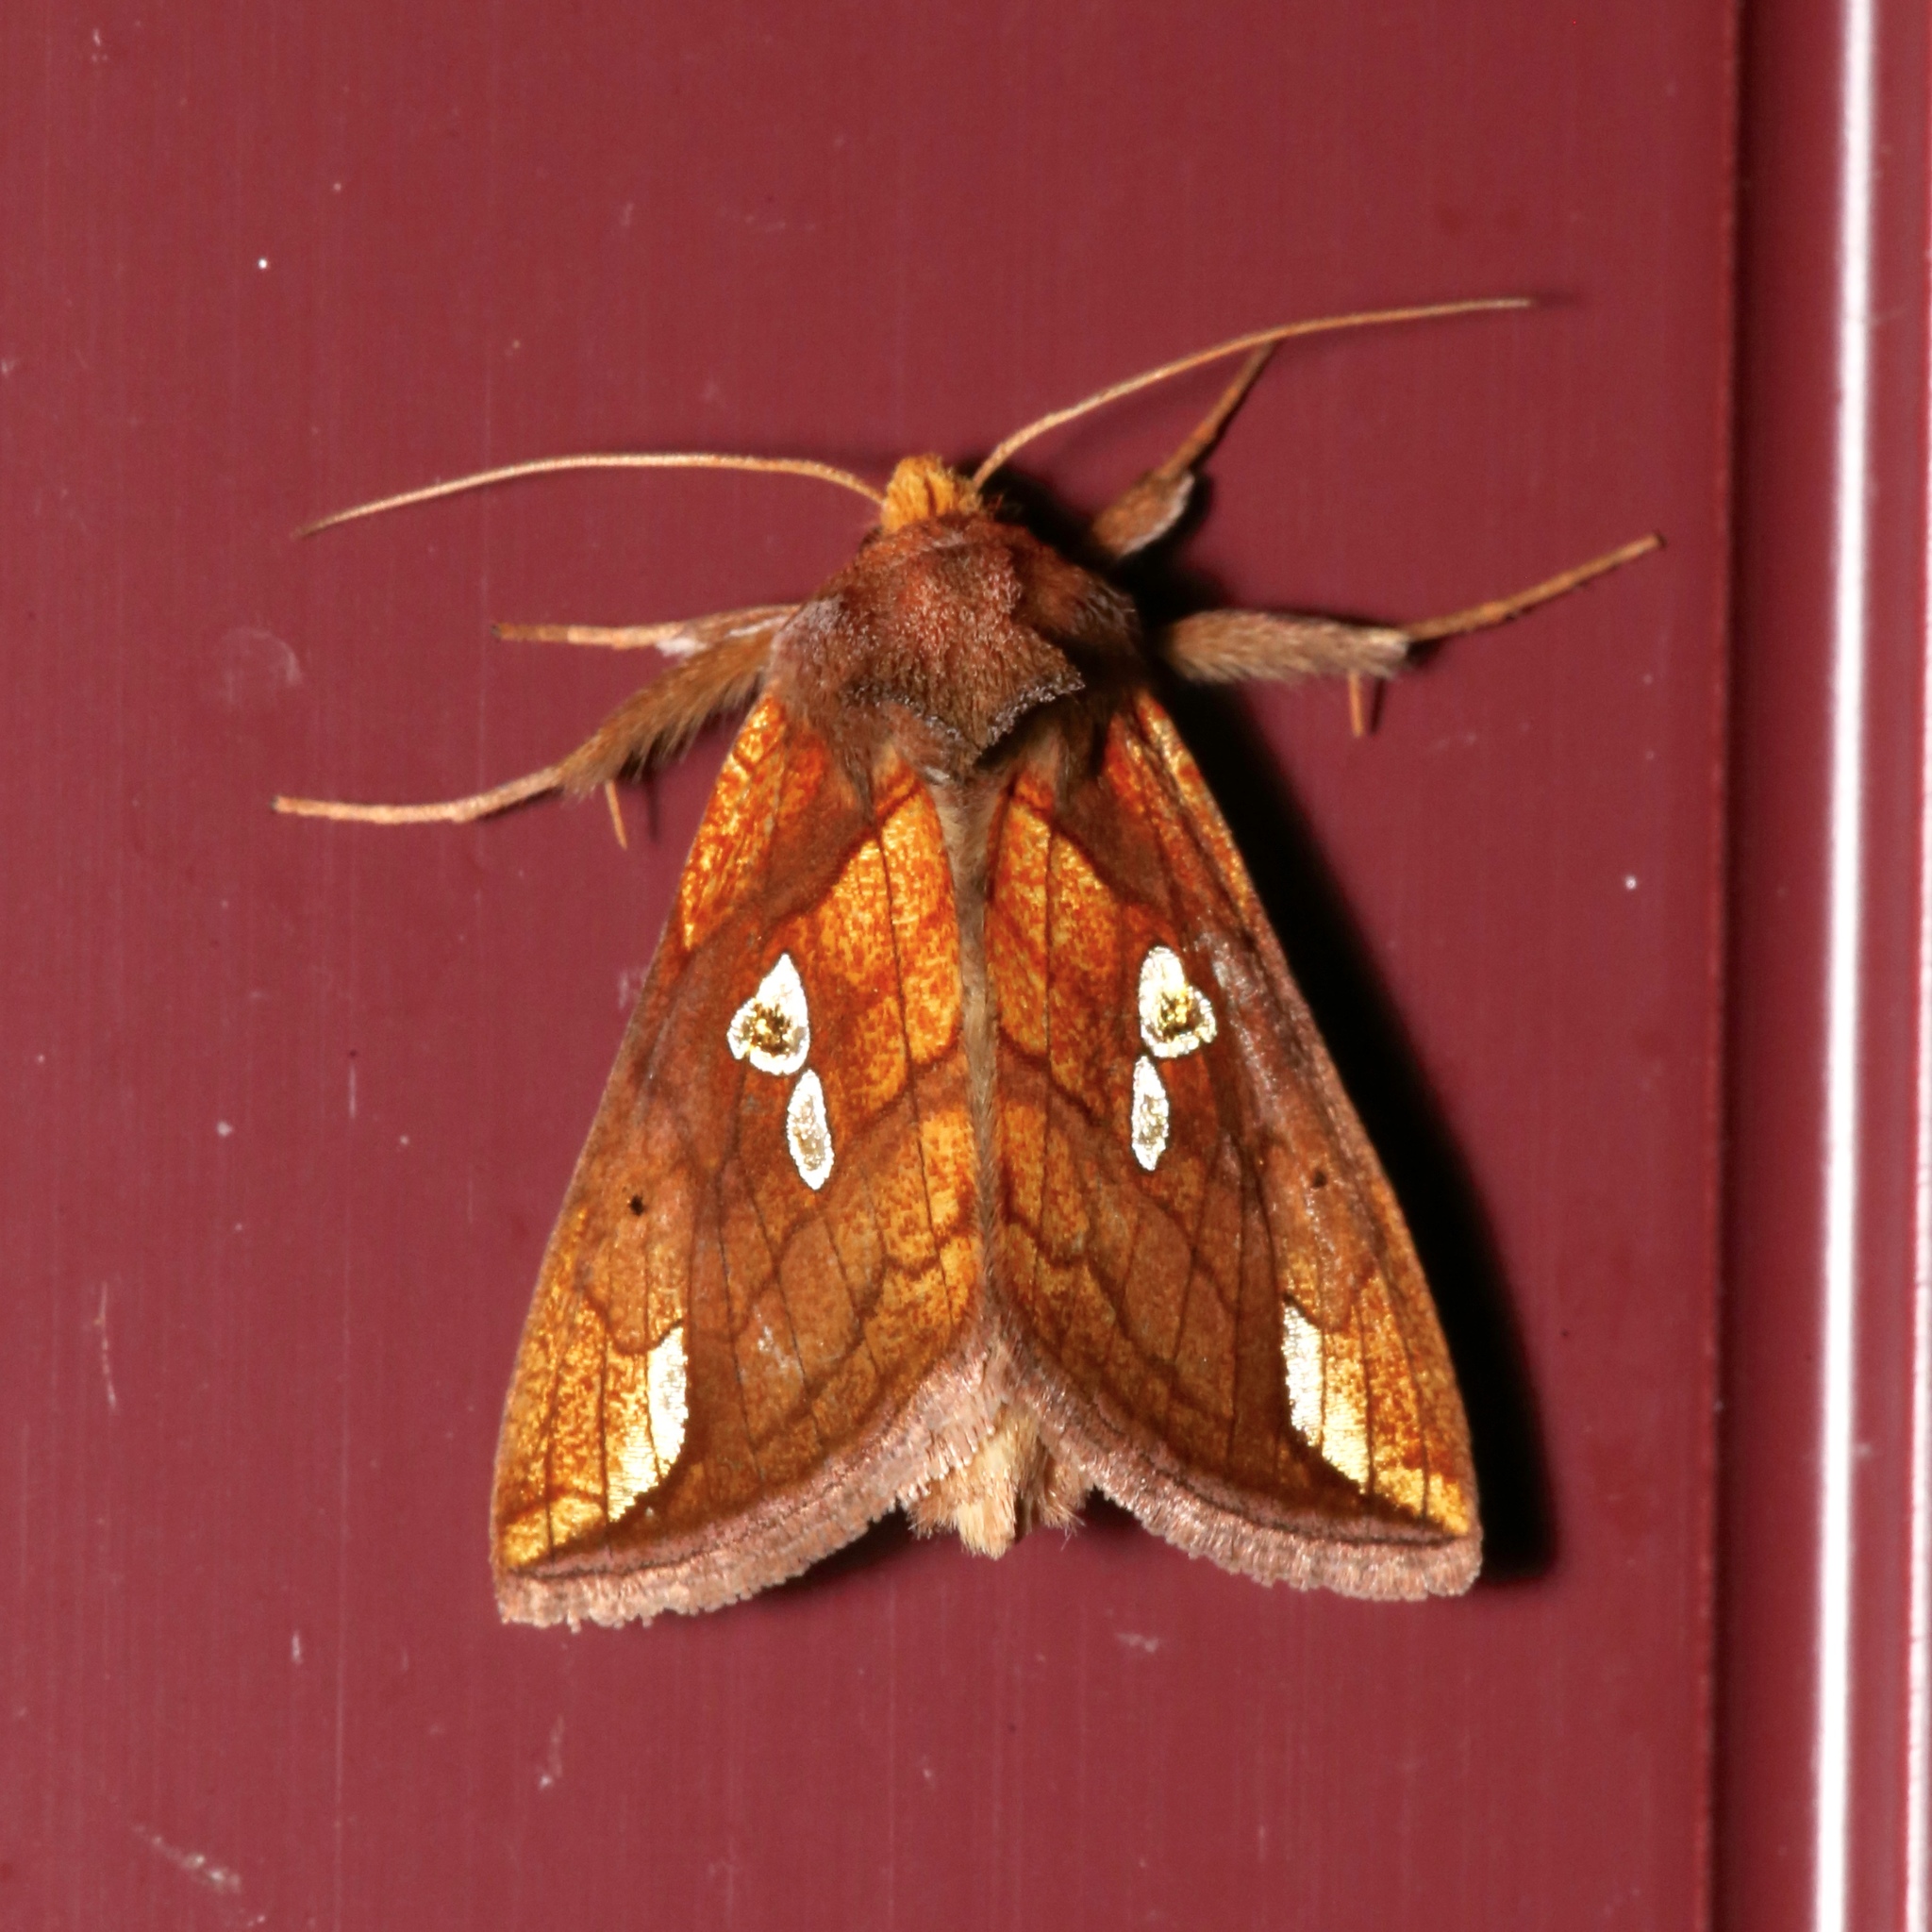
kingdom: Animalia
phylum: Arthropoda
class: Insecta
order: Lepidoptera
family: Noctuidae
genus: Plusia
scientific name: Plusia putnami
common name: Lempke's gold spot
